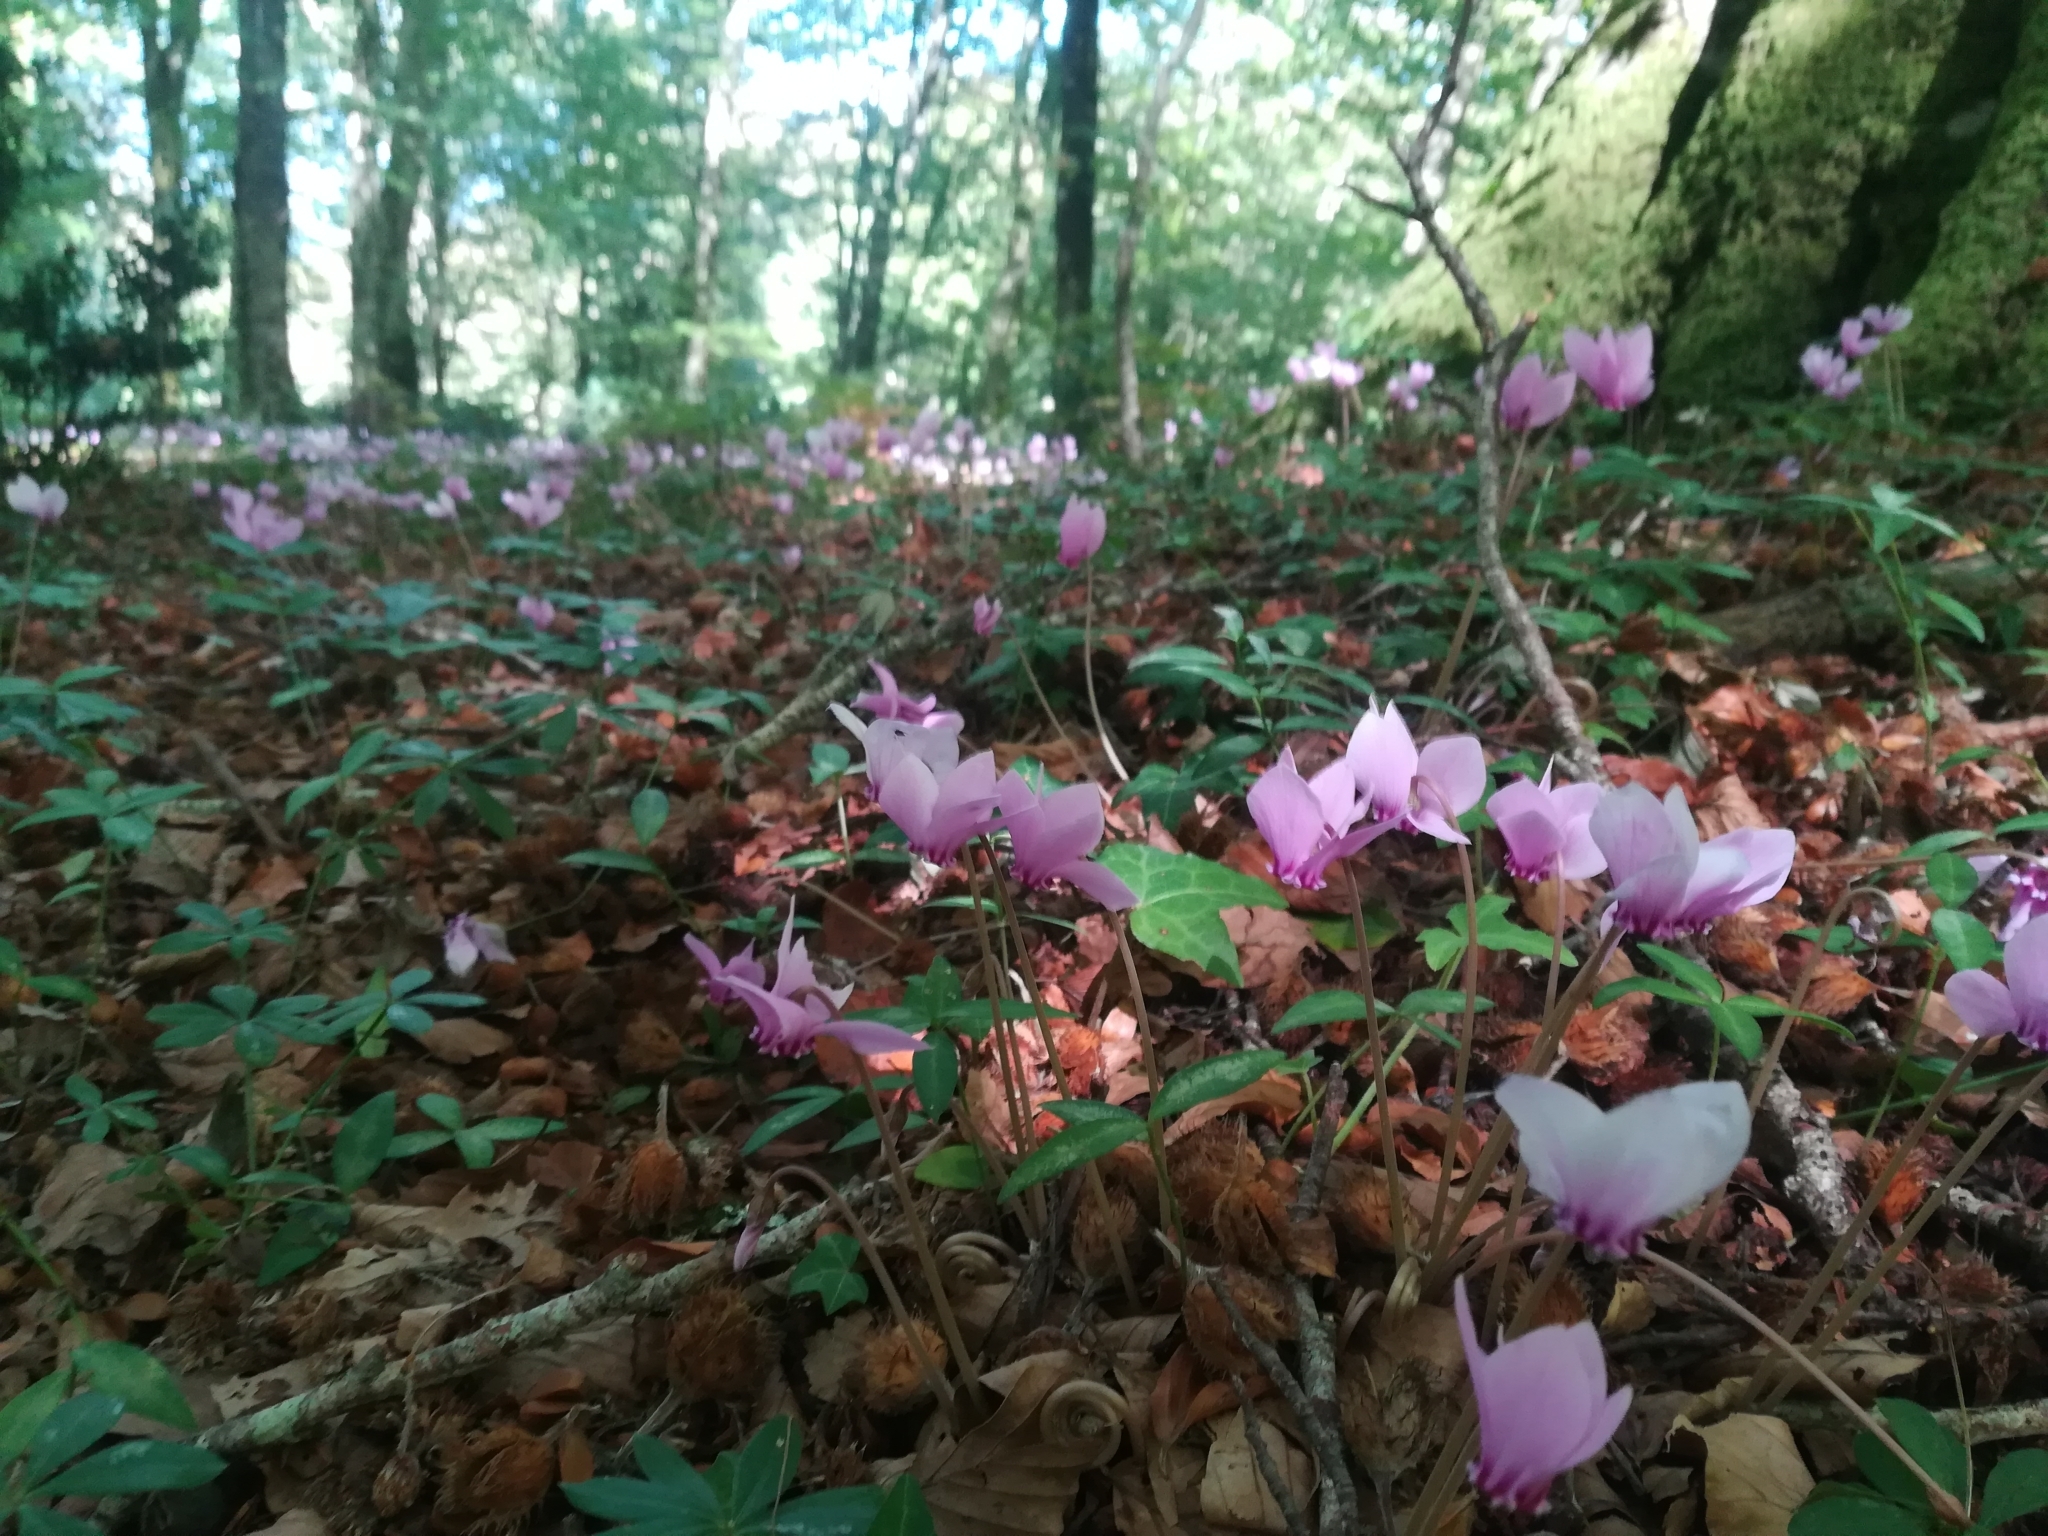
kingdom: Plantae
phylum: Tracheophyta
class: Magnoliopsida
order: Ericales
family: Primulaceae
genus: Cyclamen
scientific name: Cyclamen hederifolium
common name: Sowbread
